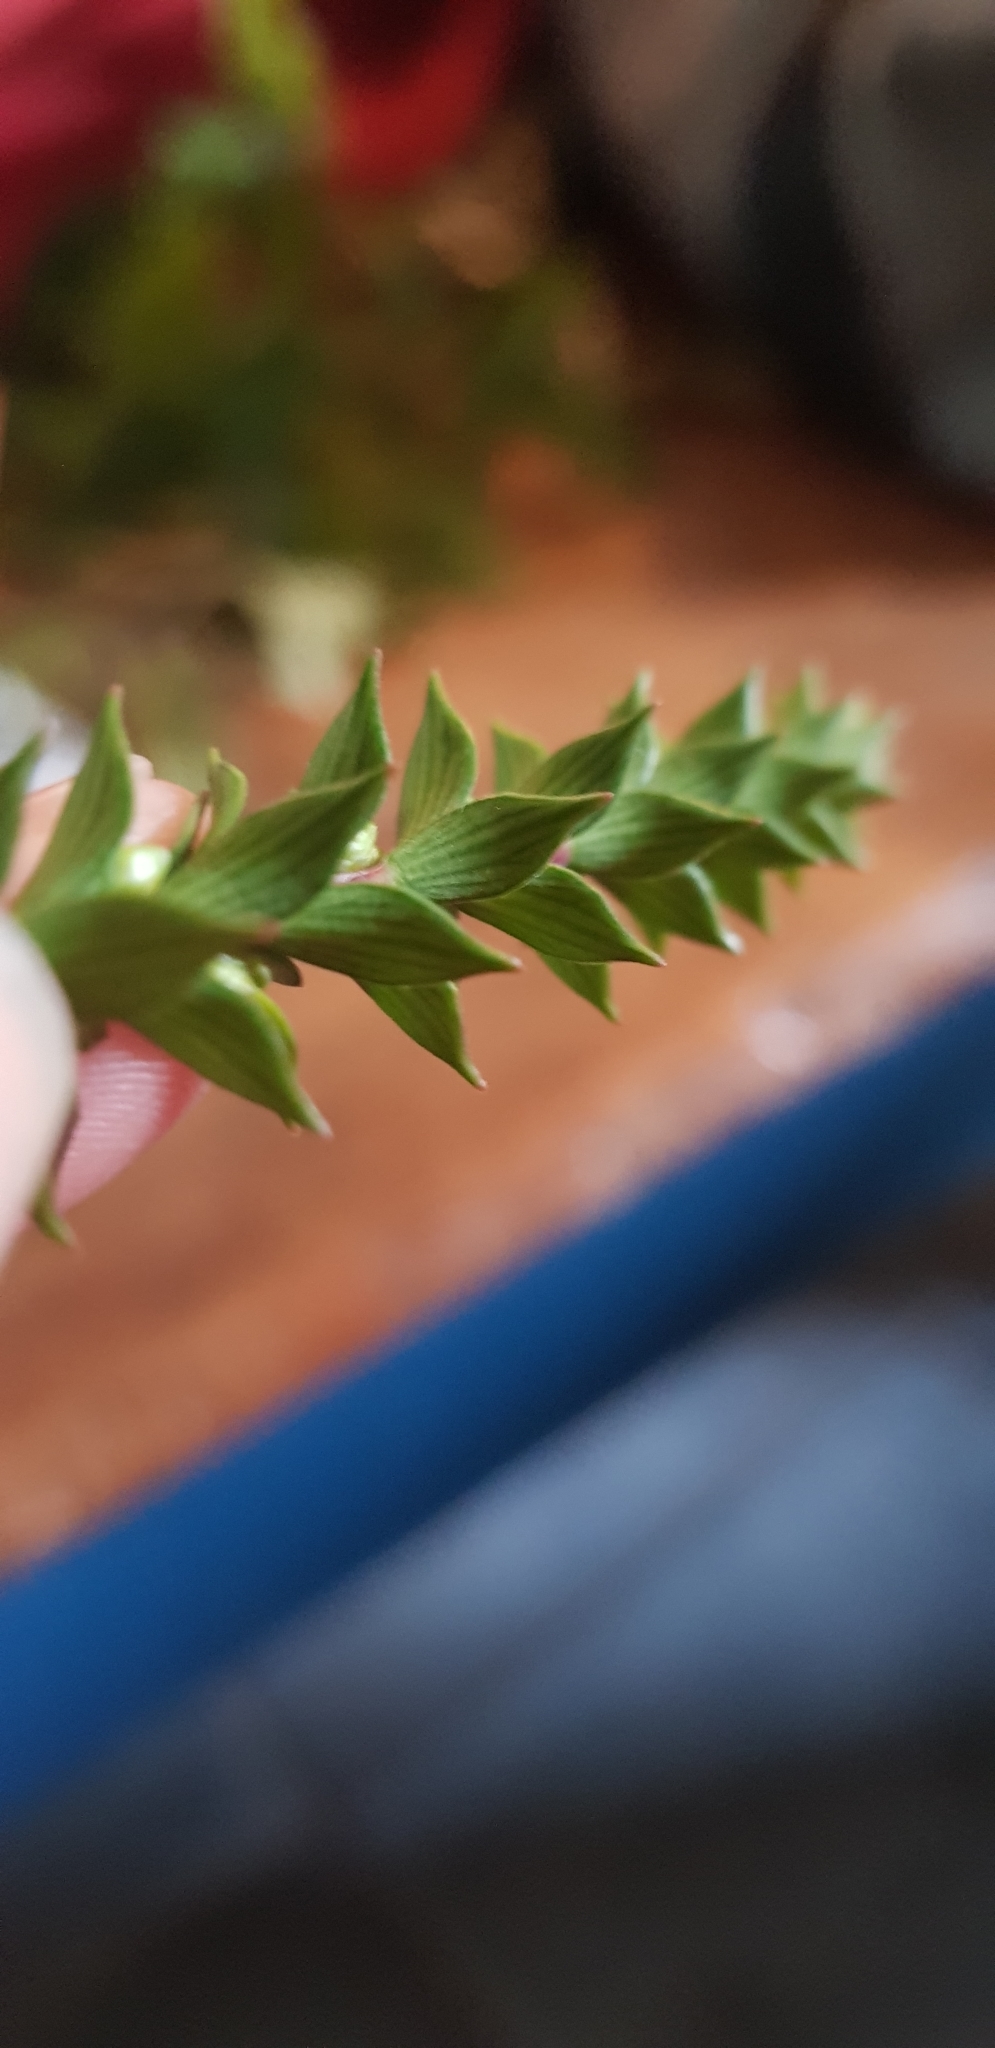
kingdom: Plantae
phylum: Tracheophyta
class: Magnoliopsida
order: Ericales
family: Ericaceae
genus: Epacris
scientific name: Epacris pauciflora
